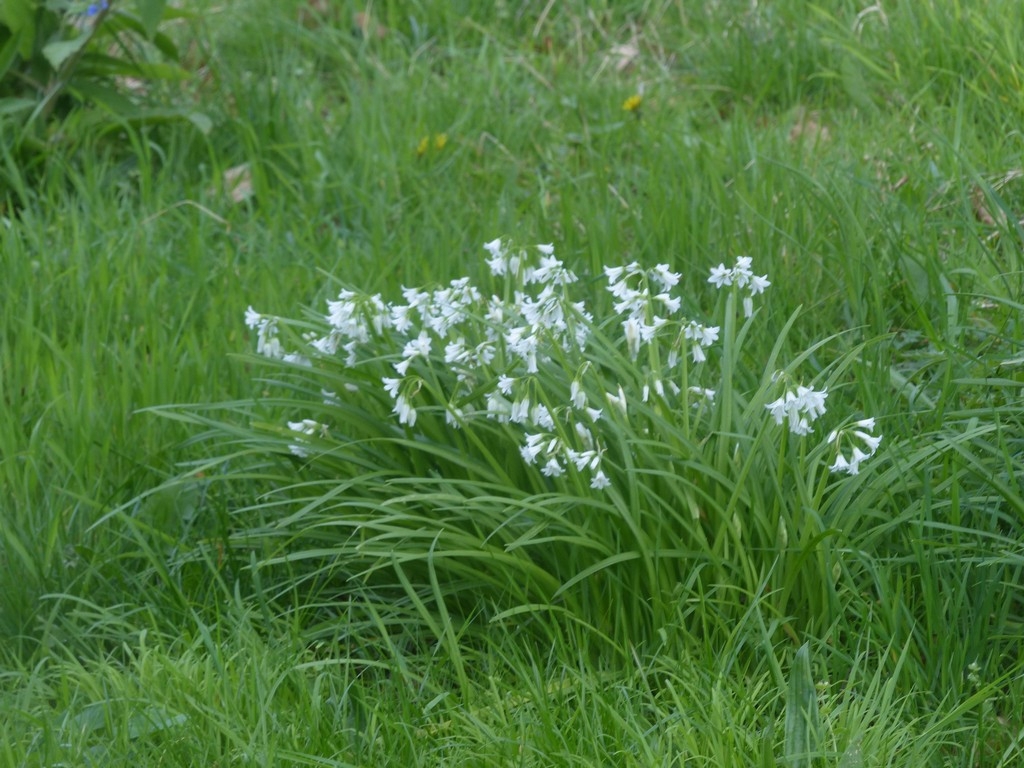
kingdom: Plantae
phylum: Tracheophyta
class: Liliopsida
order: Asparagales
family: Amaryllidaceae
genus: Allium
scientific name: Allium triquetrum
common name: Three-cornered garlic
